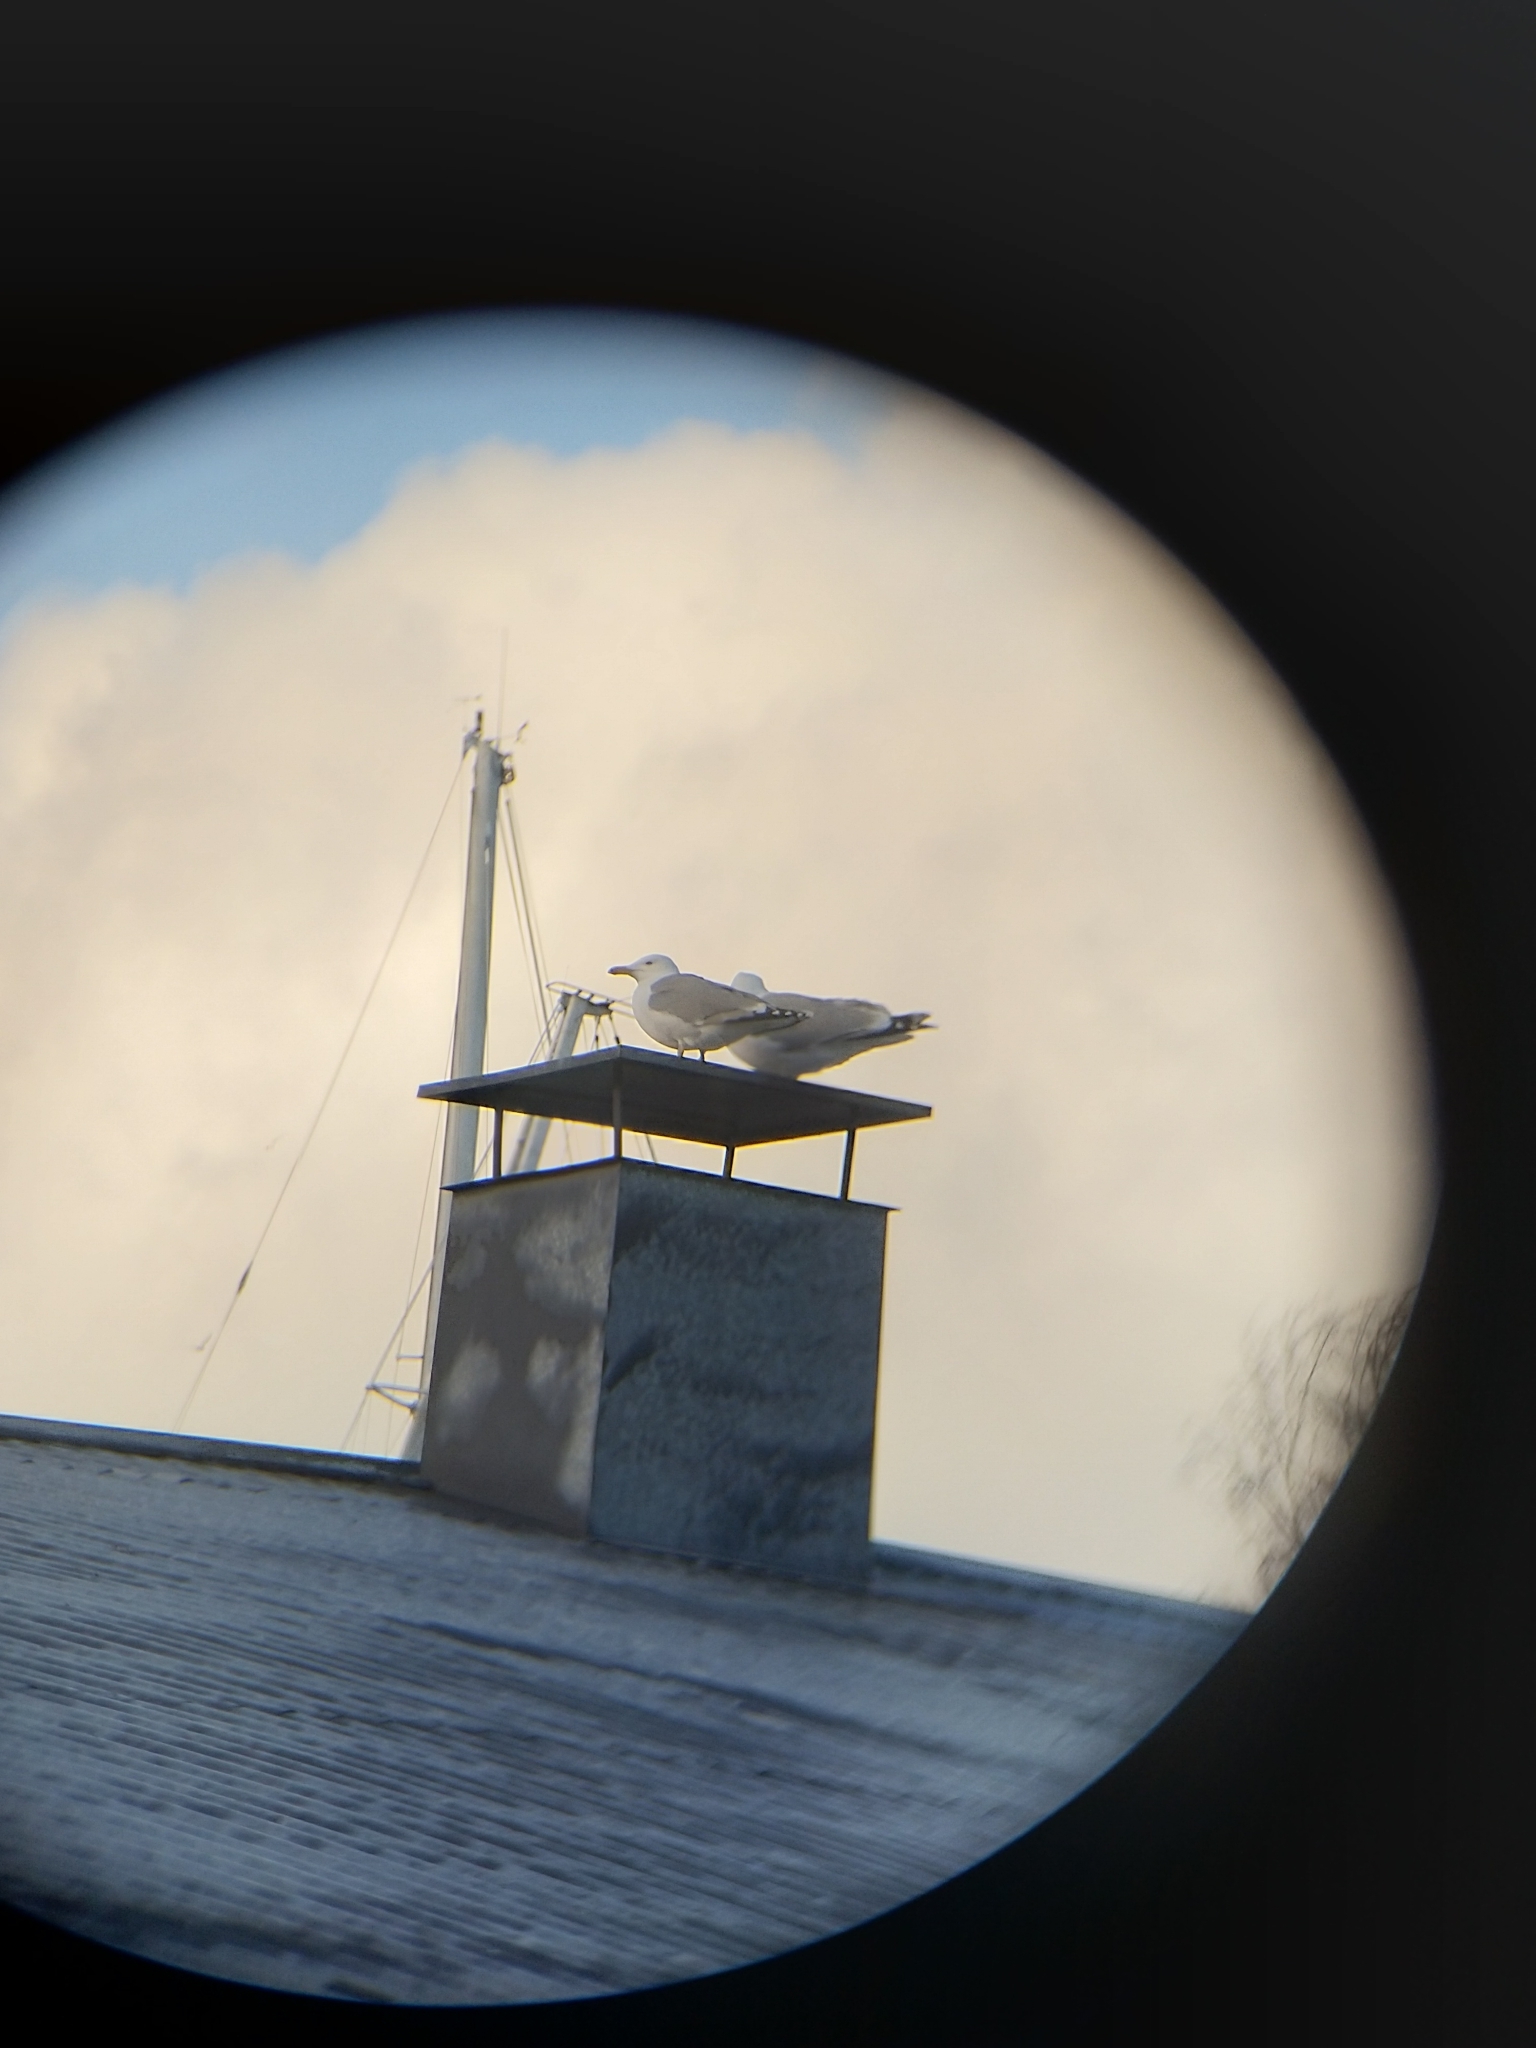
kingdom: Animalia
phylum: Chordata
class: Aves
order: Charadriiformes
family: Laridae
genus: Larus
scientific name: Larus argentatus
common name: Herring gull
